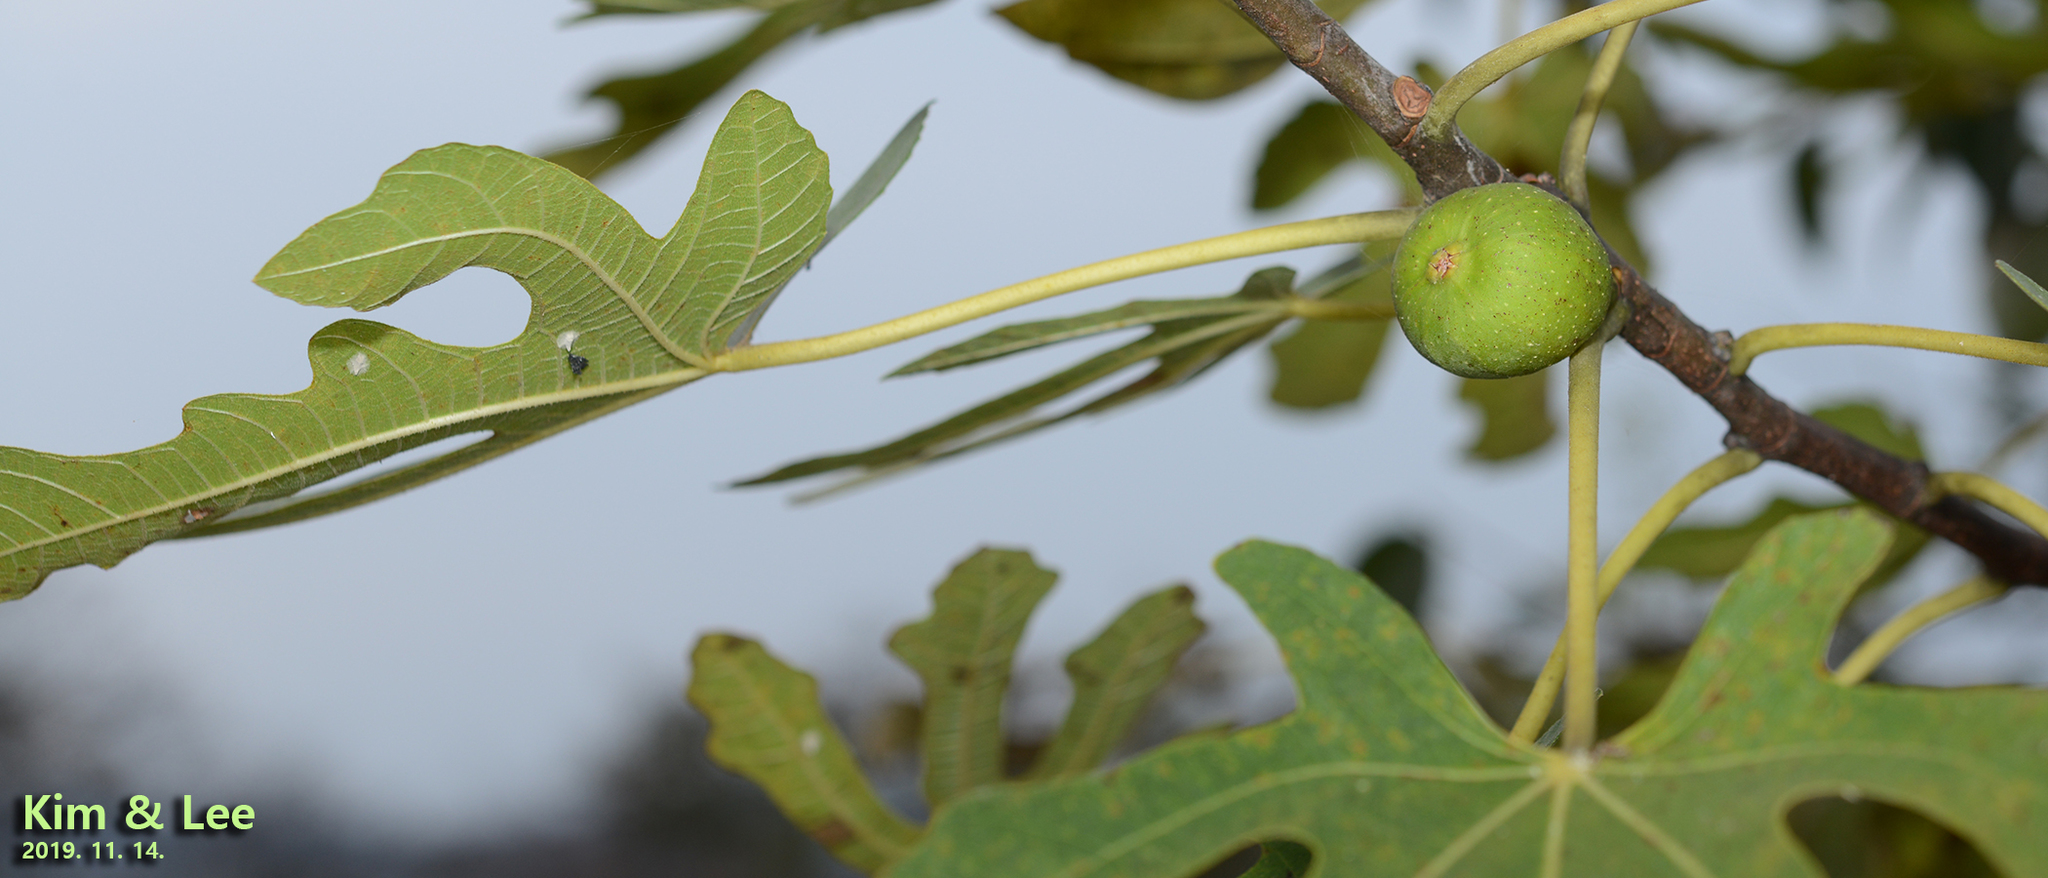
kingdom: Plantae
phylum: Tracheophyta
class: Magnoliopsida
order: Rosales
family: Moraceae
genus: Ficus
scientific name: Ficus carica
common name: Fig
